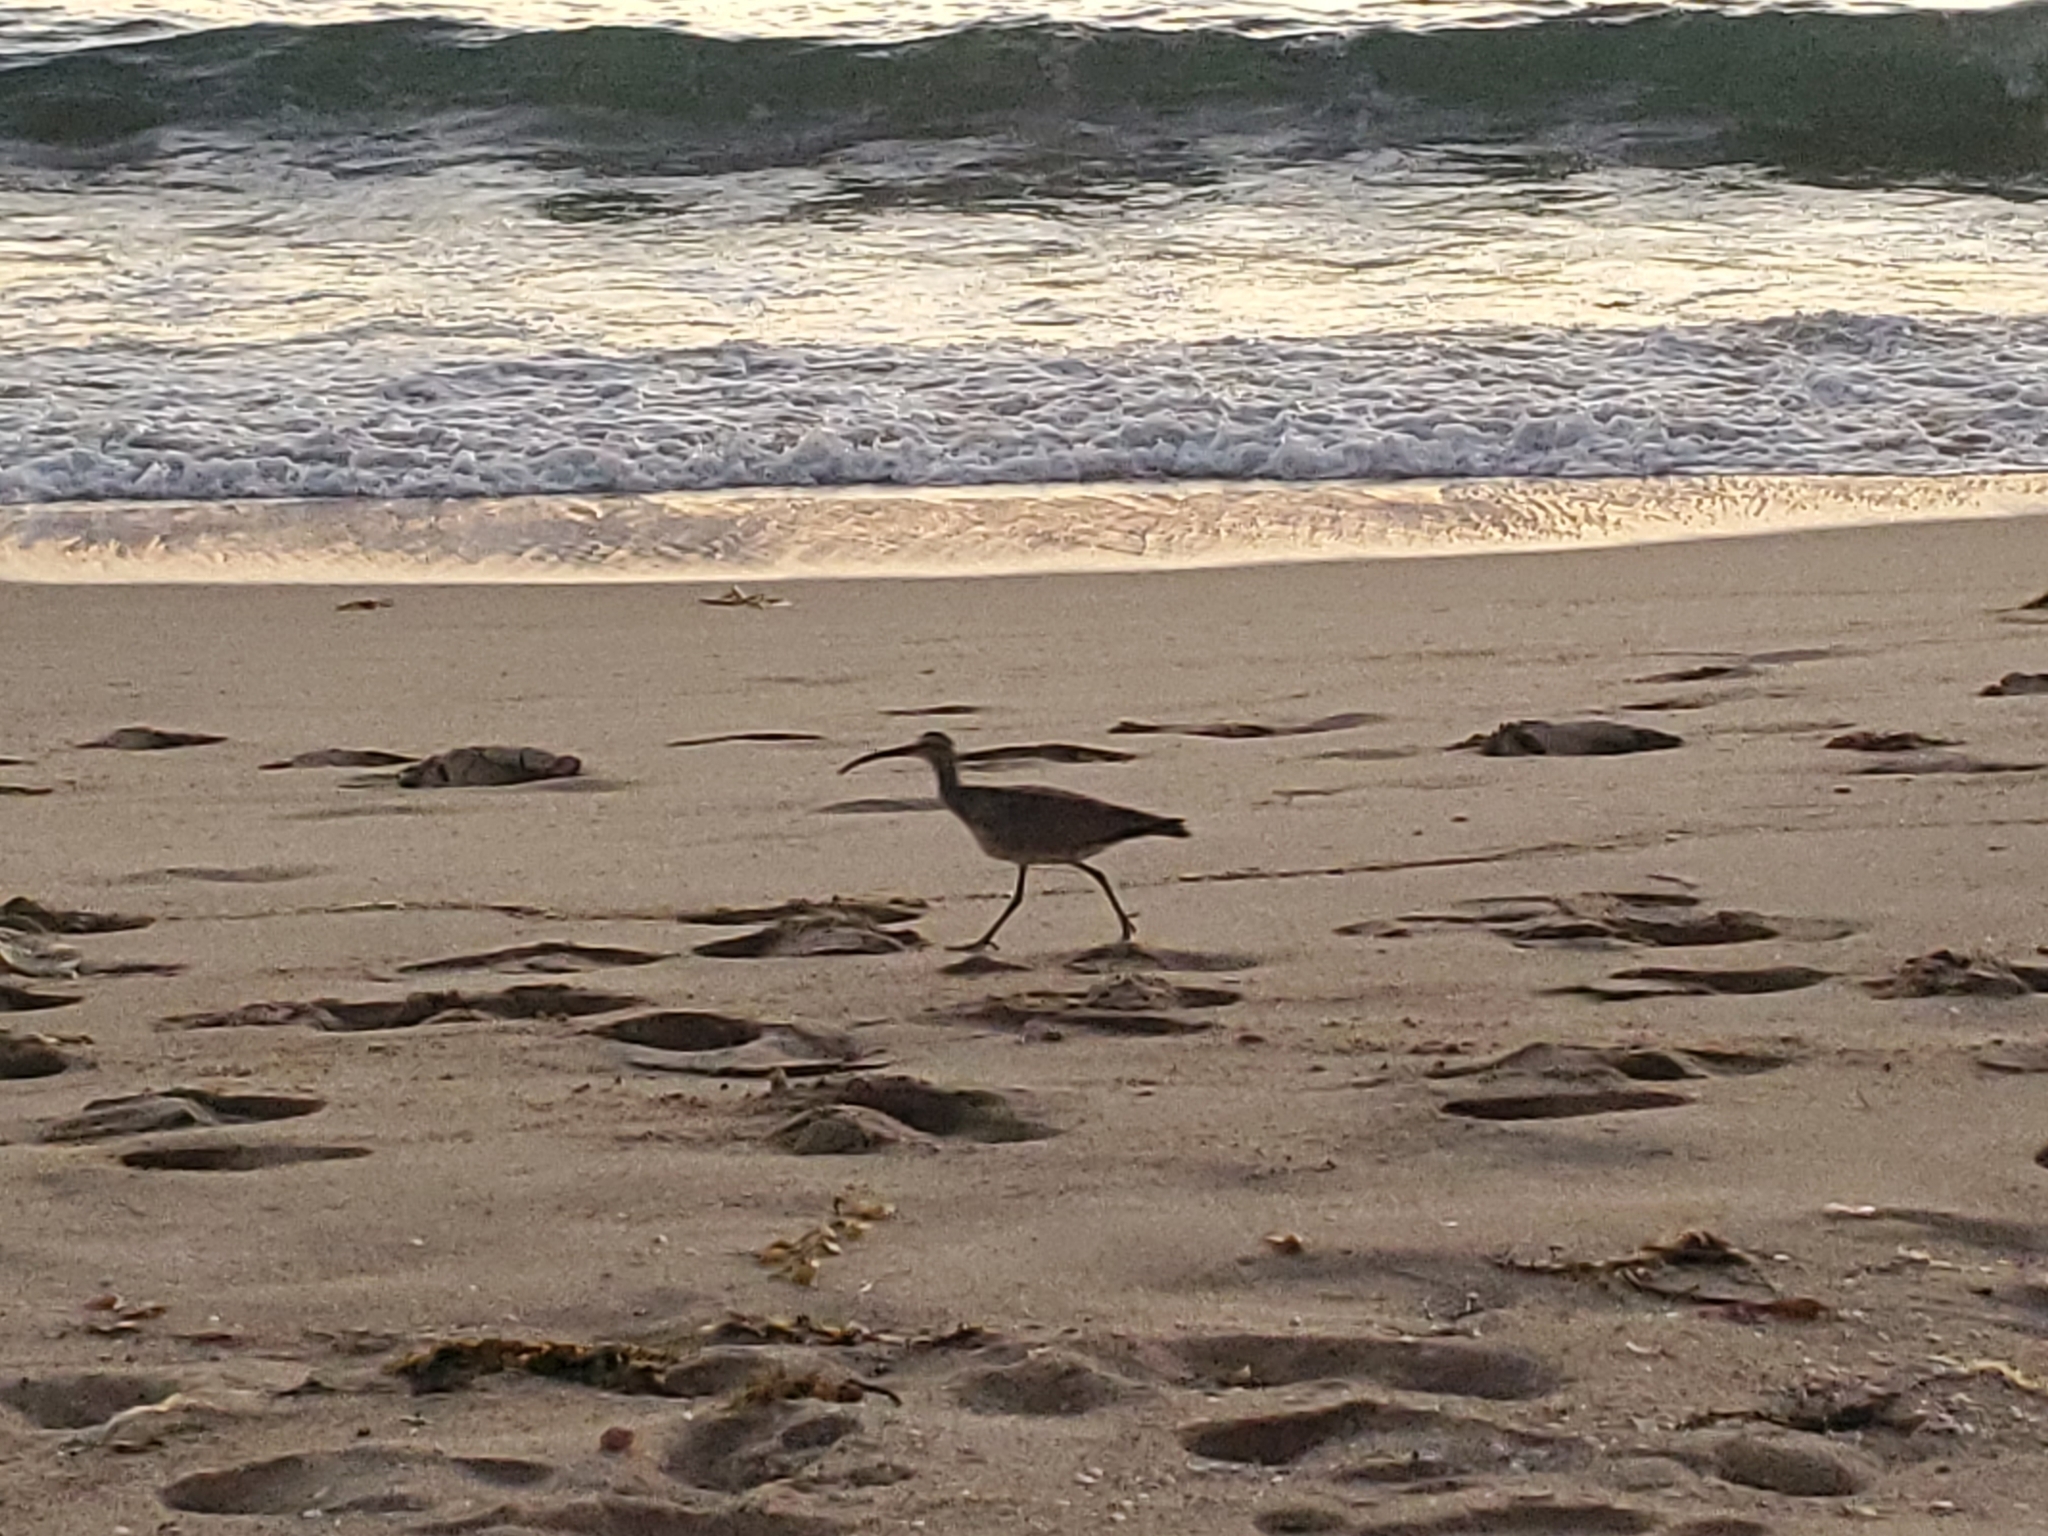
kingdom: Animalia
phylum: Chordata
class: Aves
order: Charadriiformes
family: Scolopacidae
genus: Numenius
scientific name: Numenius phaeopus
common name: Whimbrel
